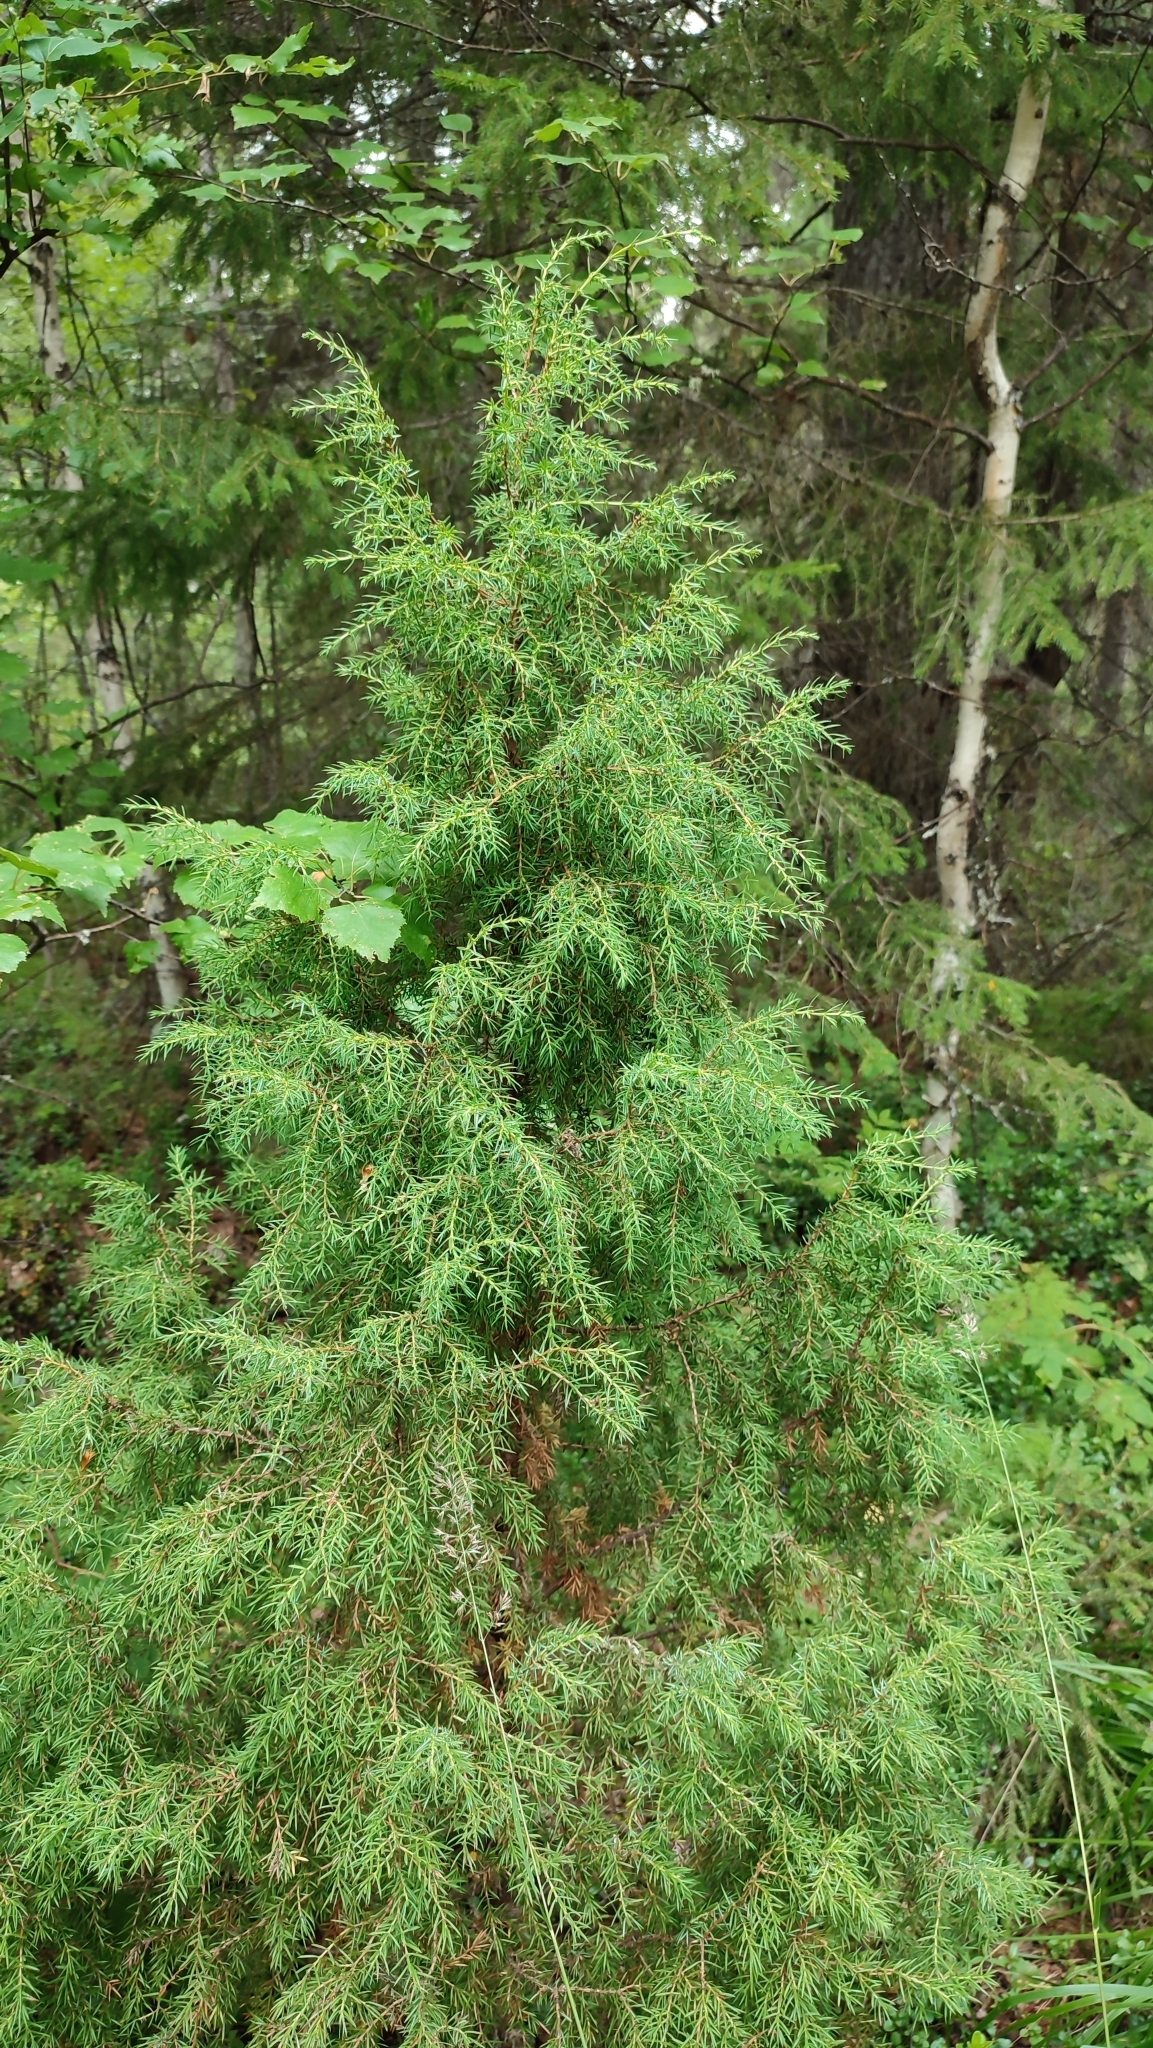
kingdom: Plantae
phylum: Tracheophyta
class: Pinopsida
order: Pinales
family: Cupressaceae
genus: Juniperus
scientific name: Juniperus communis
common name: Common juniper
